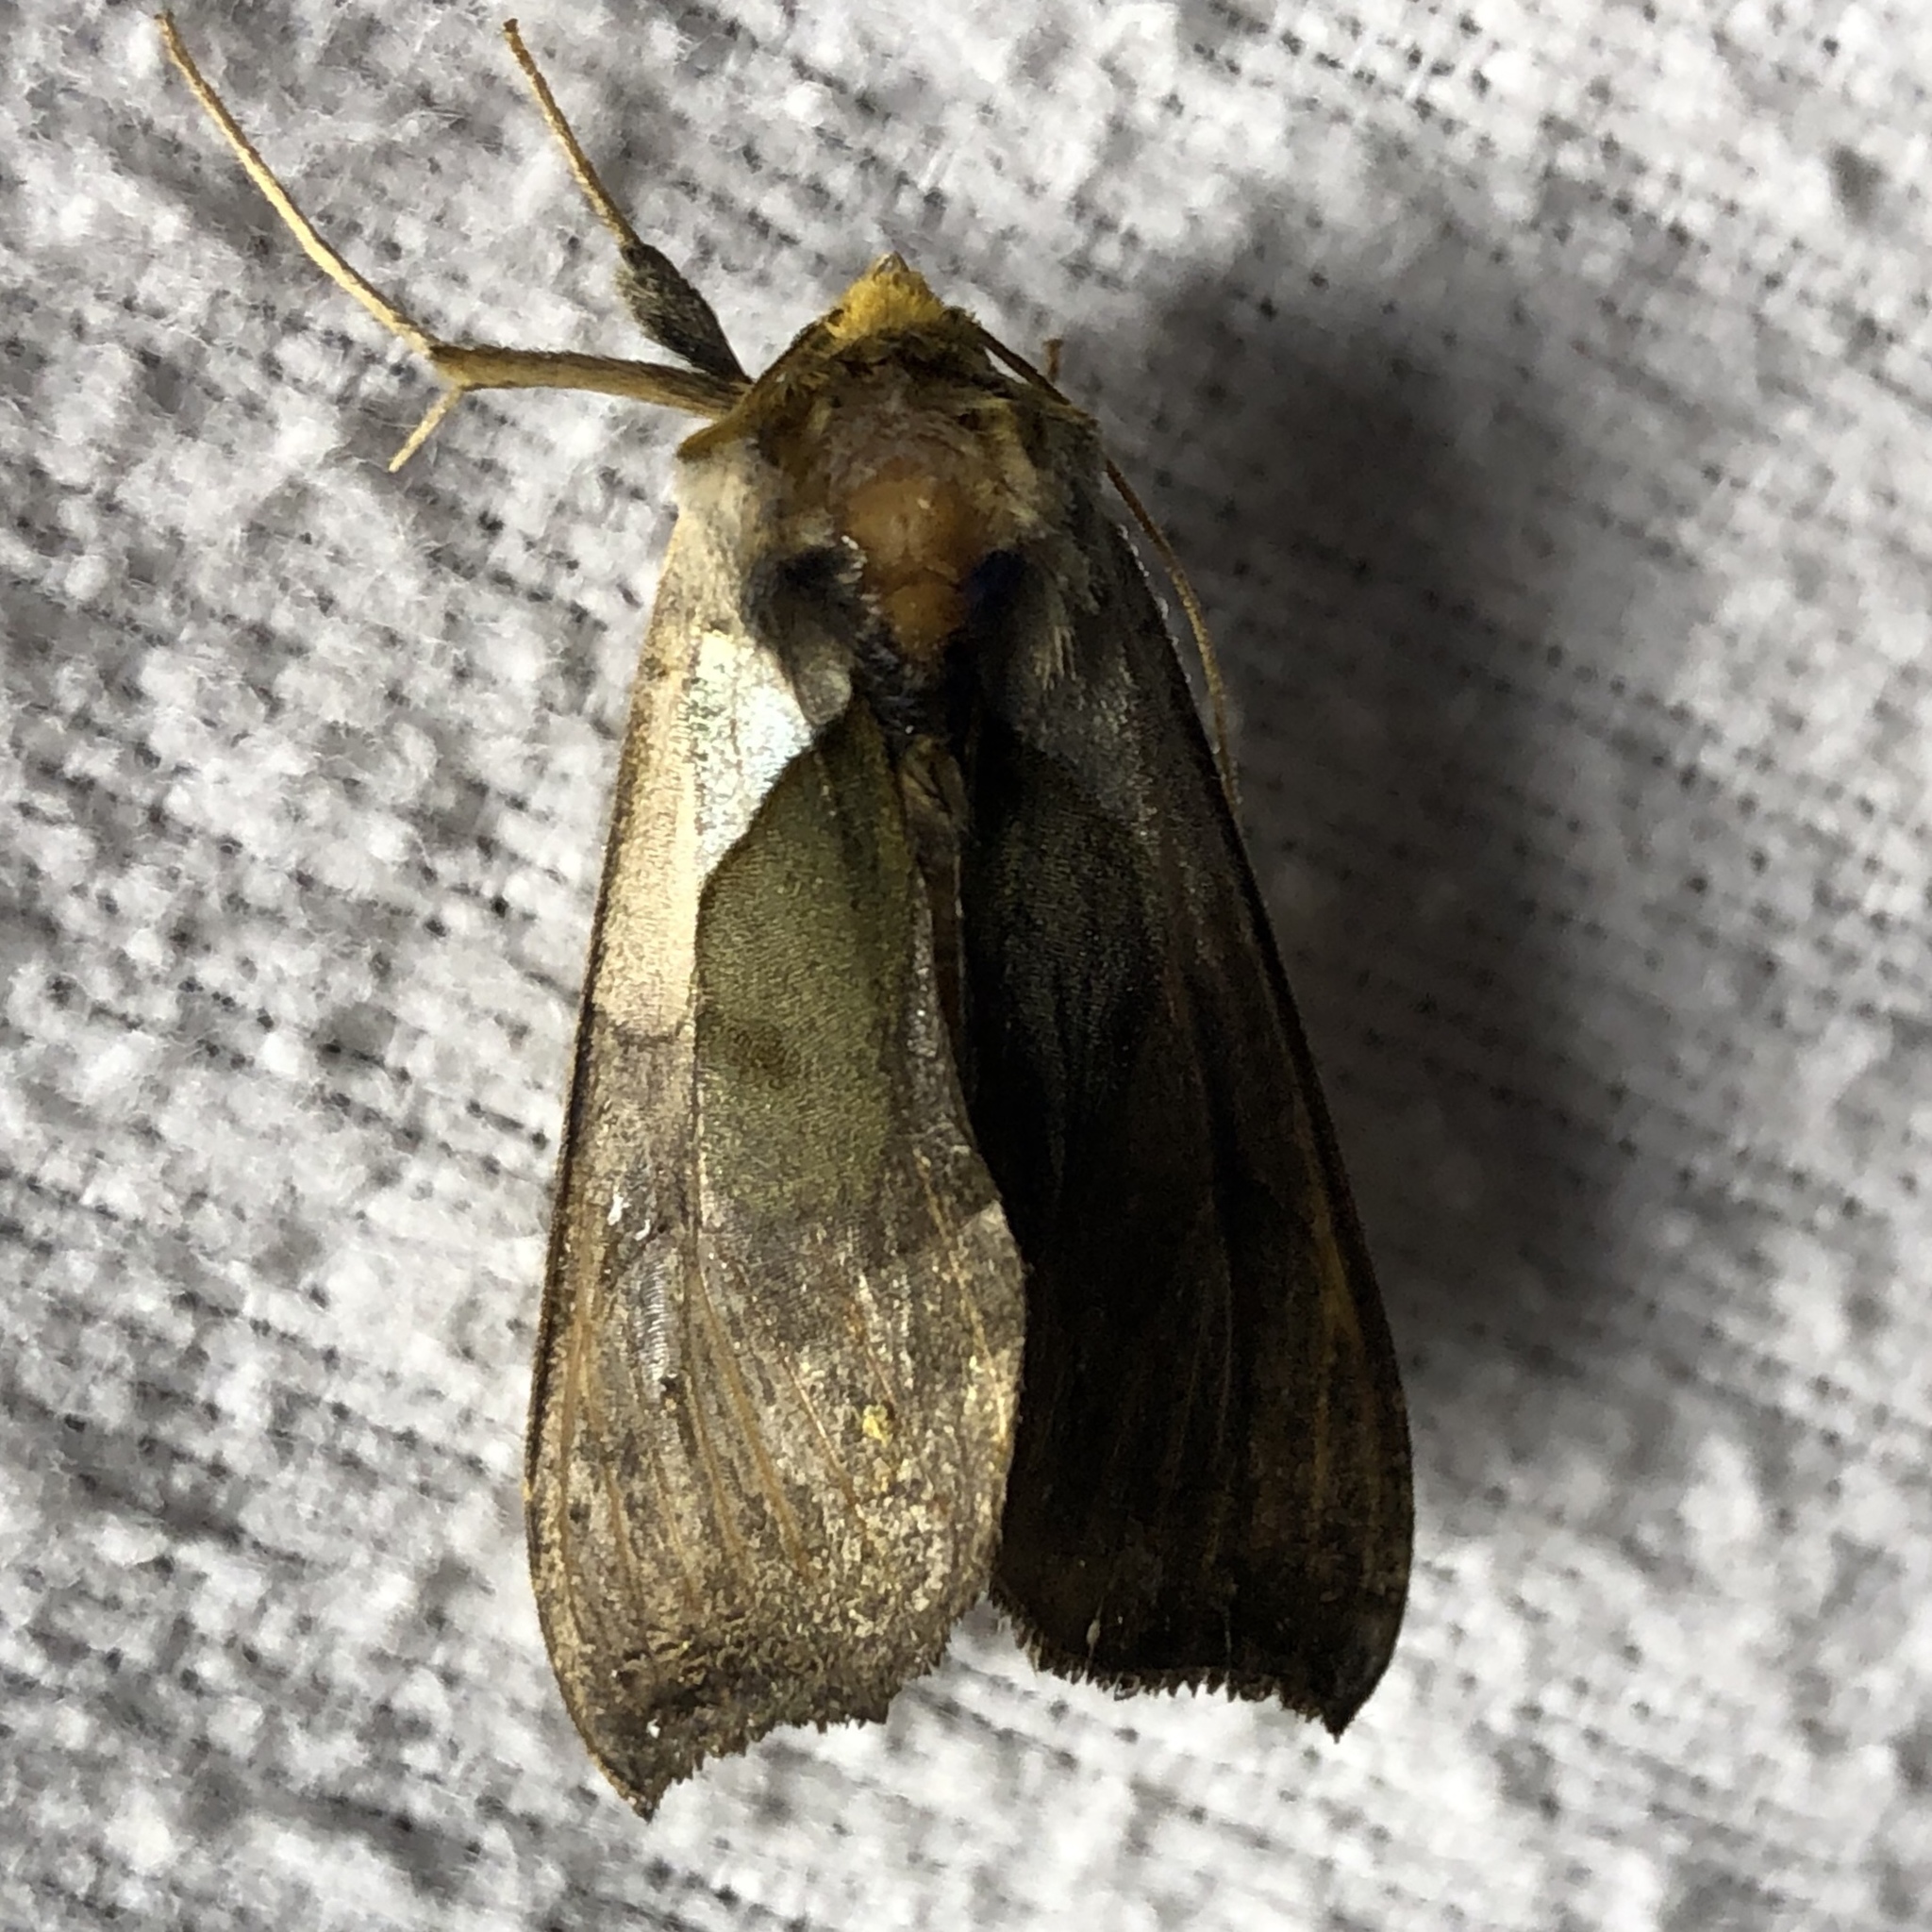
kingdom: Animalia
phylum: Arthropoda
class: Insecta
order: Lepidoptera
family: Noctuidae
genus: Diachrysia
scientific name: Diachrysia balluca
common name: Green-patched looper moth
